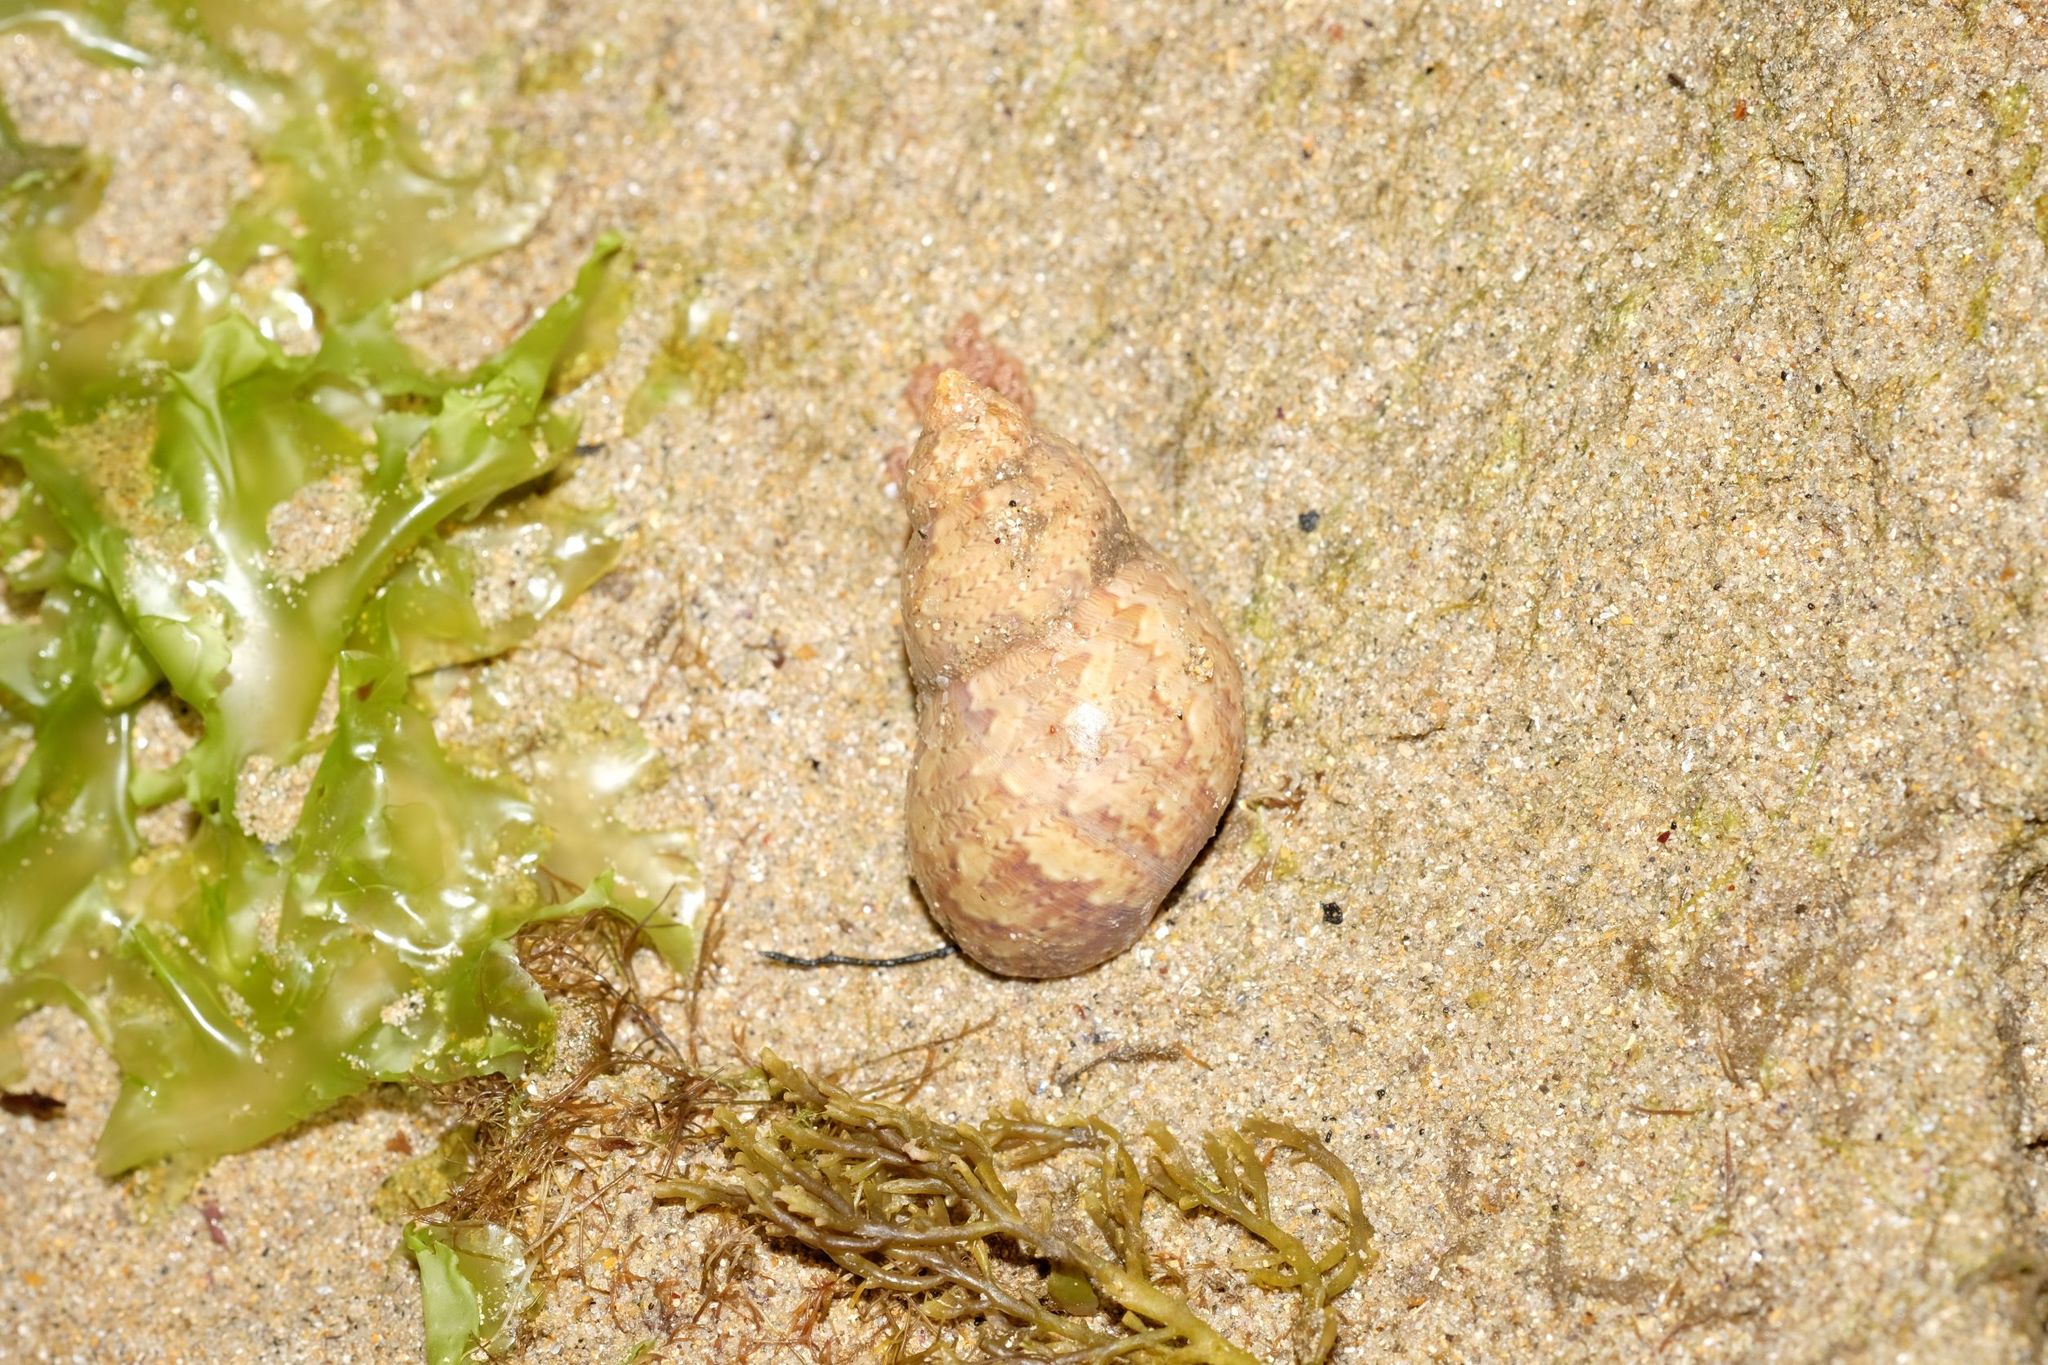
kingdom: Animalia
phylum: Mollusca
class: Gastropoda
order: Trochida
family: Phasianellidae
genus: Phasianella
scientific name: Phasianella ventricosa
